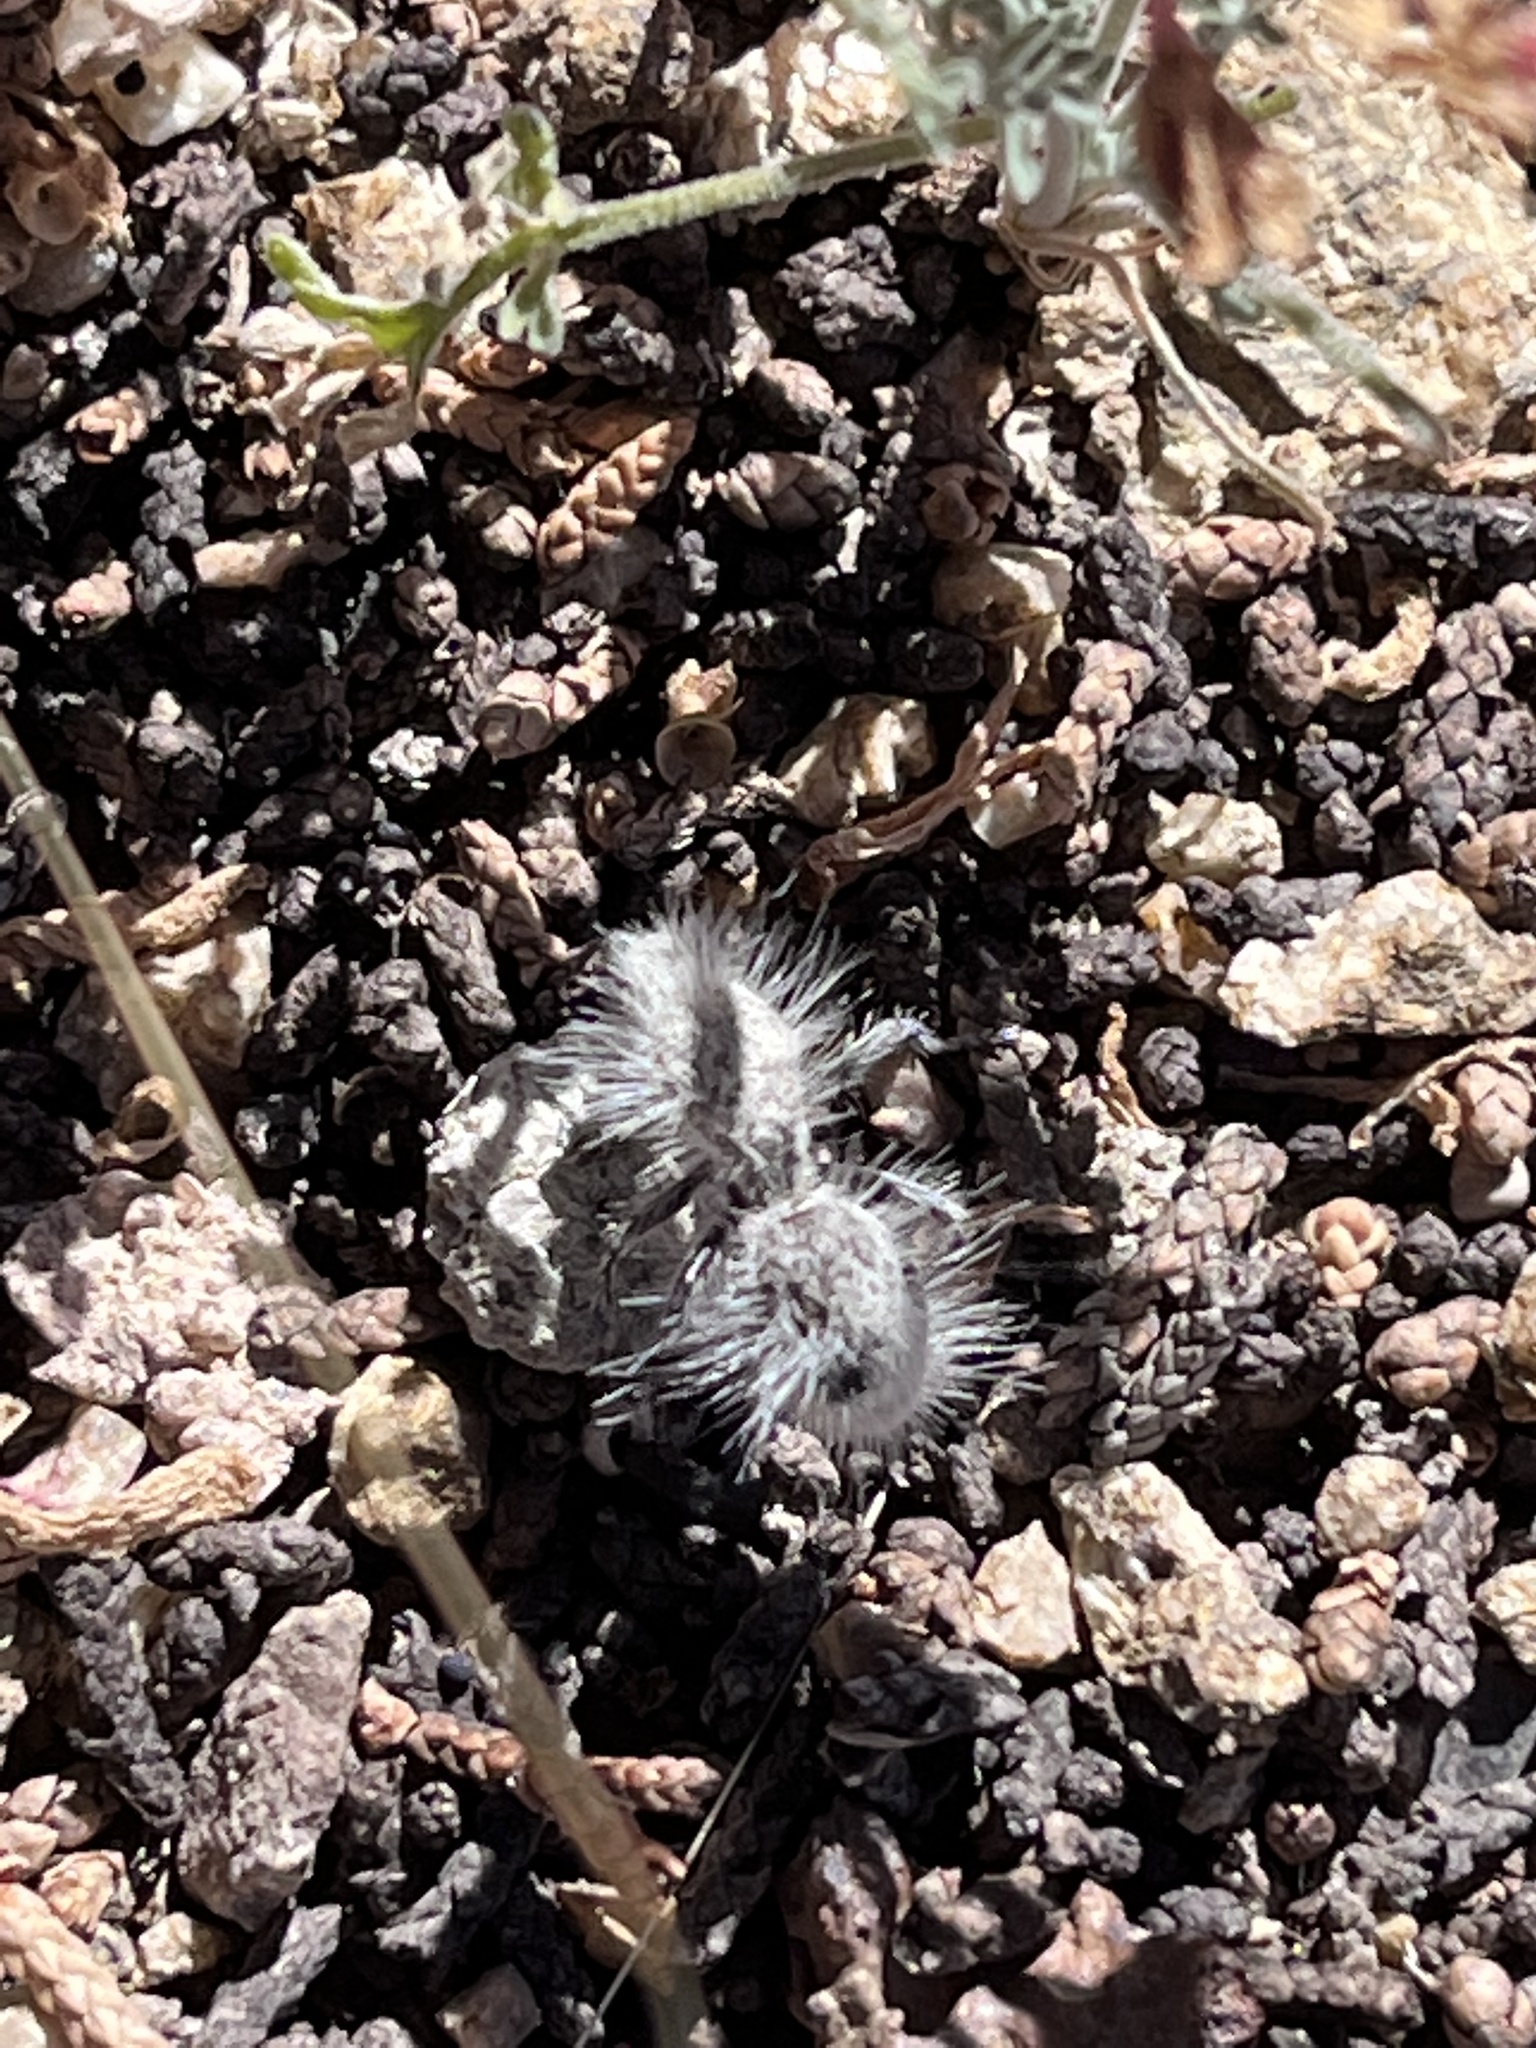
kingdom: Animalia
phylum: Arthropoda
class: Insecta
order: Hymenoptera
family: Mutillidae
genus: Dasymutilla
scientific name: Dasymutilla pseudopappus
